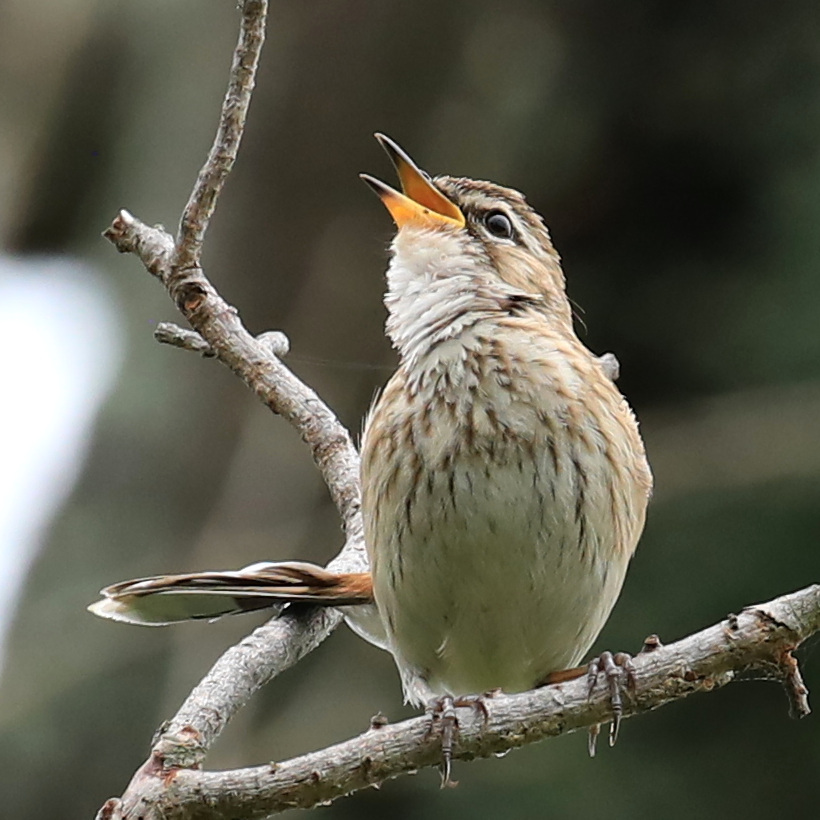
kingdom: Animalia
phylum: Chordata
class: Aves
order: Passeriformes
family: Muscicapidae
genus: Erythropygia
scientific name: Erythropygia leucophrys
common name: White-browed scrub robin
